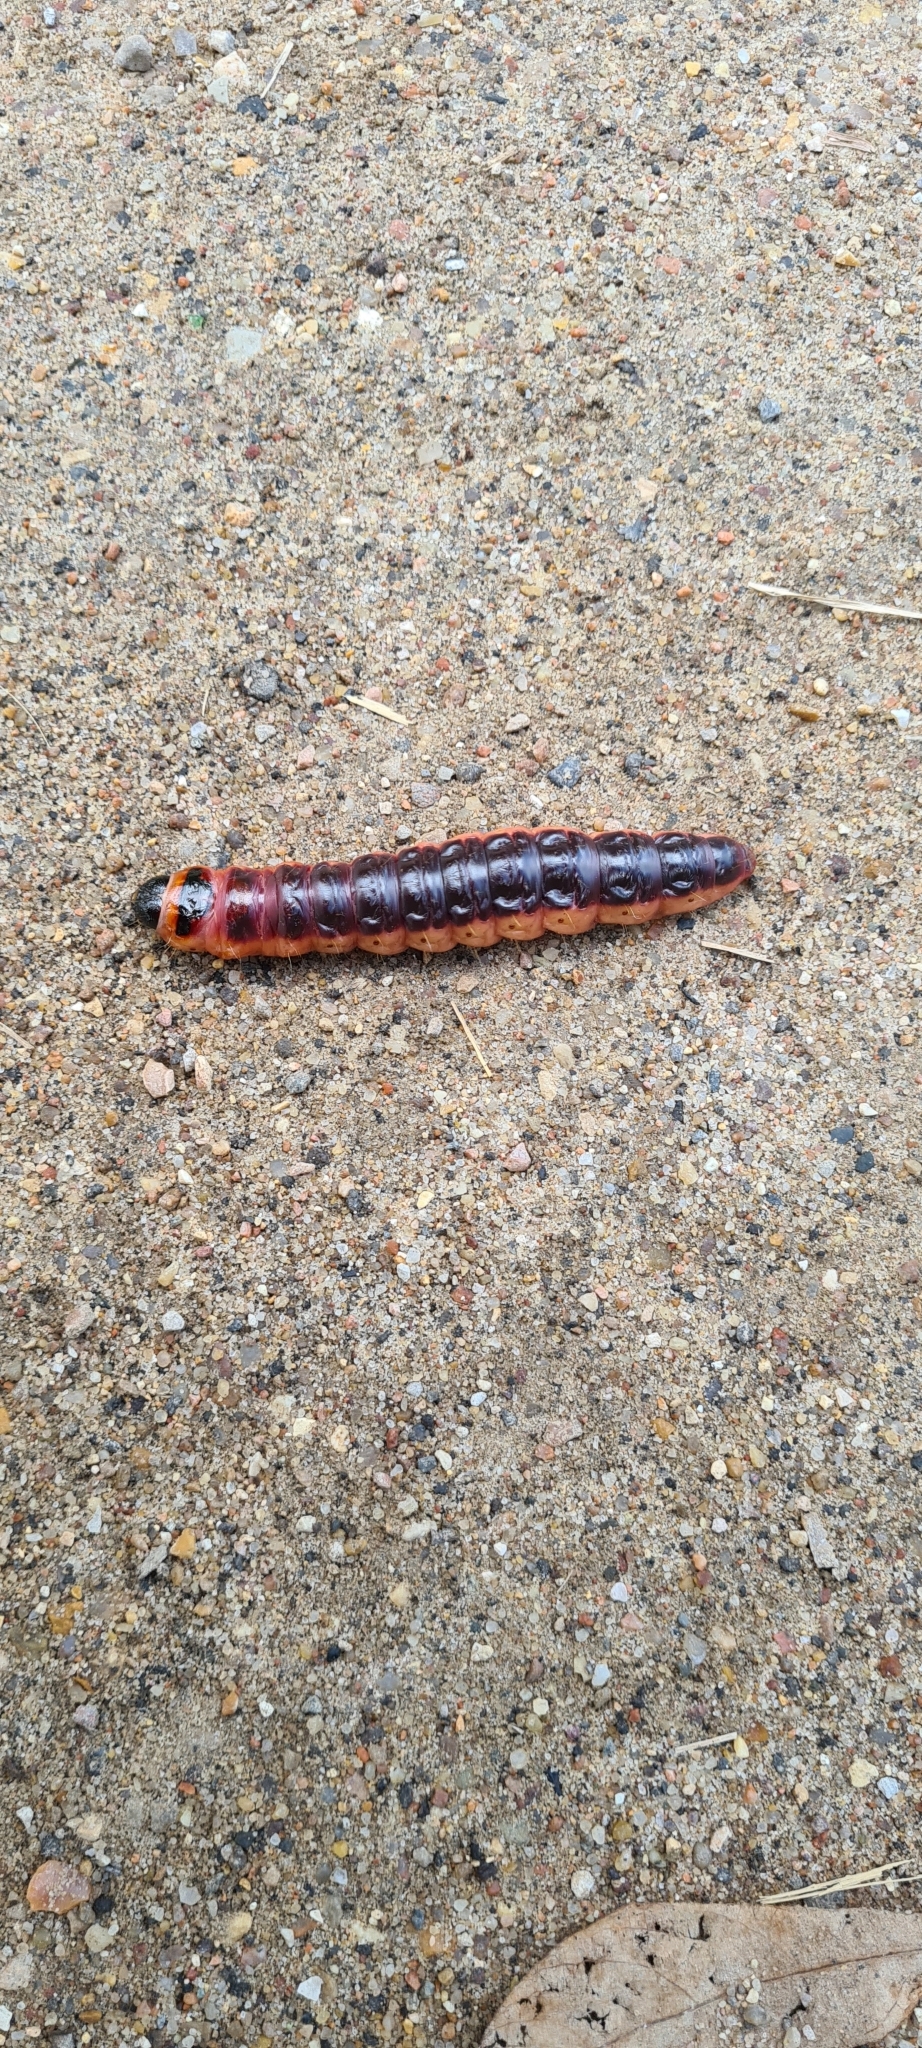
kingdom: Animalia
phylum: Arthropoda
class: Insecta
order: Lepidoptera
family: Cossidae
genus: Cossus
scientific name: Cossus cossus
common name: Goat moth
